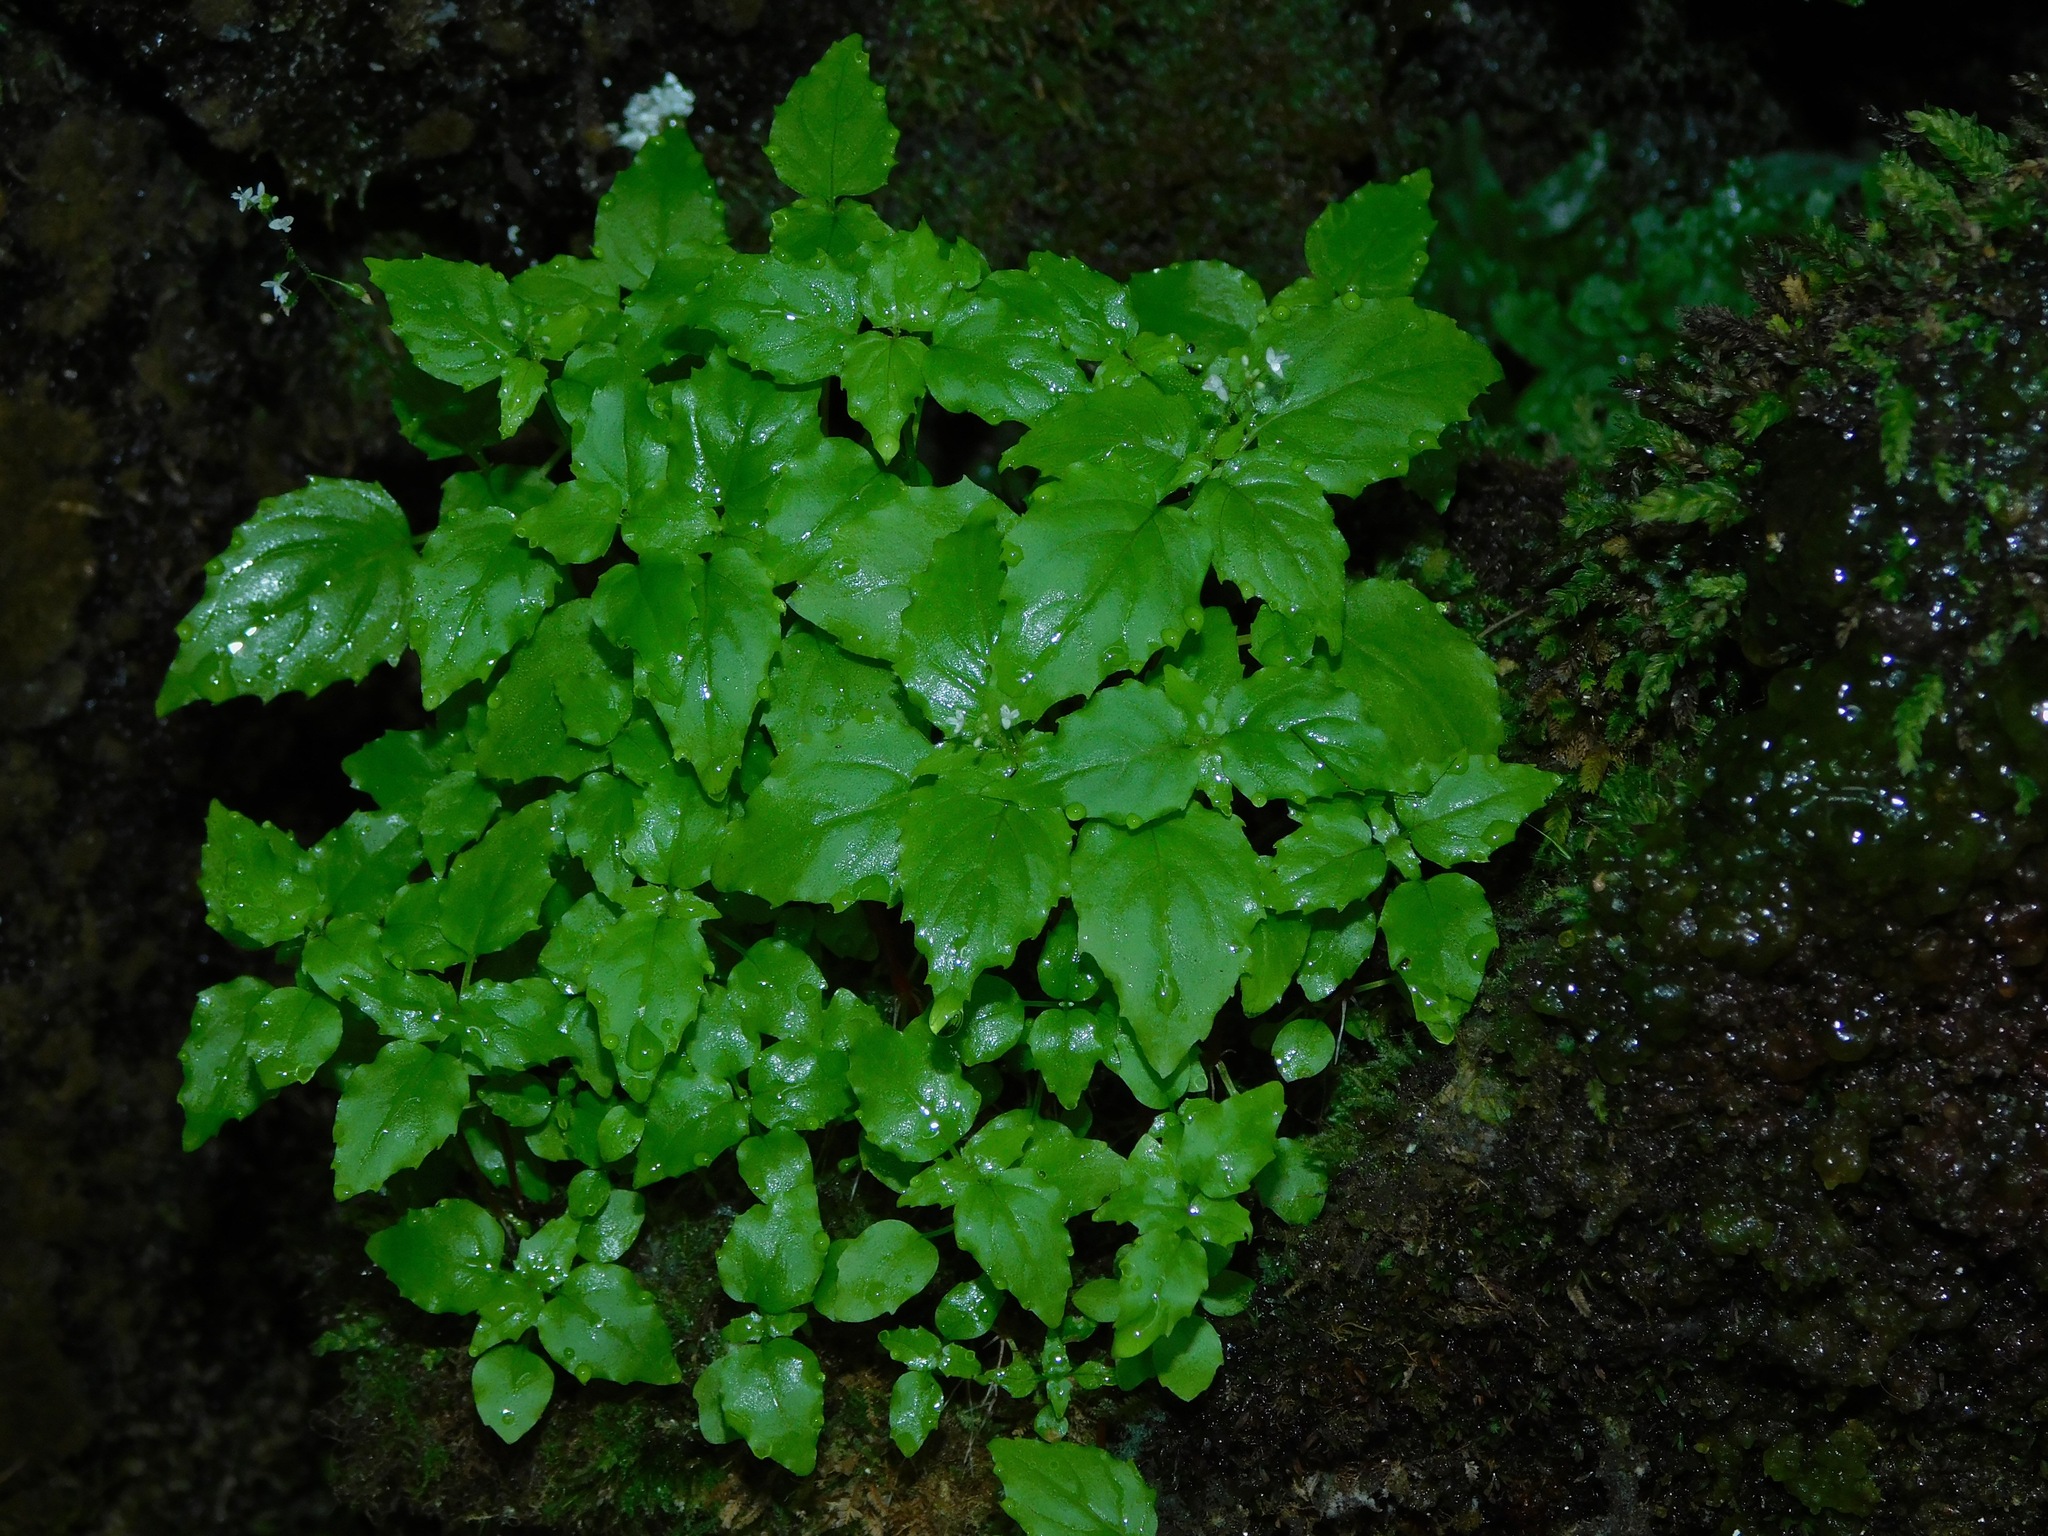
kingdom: Plantae
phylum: Tracheophyta
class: Magnoliopsida
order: Myrtales
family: Onagraceae
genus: Circaea
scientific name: Circaea alpina
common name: Alpine enchanter's-nightshade
